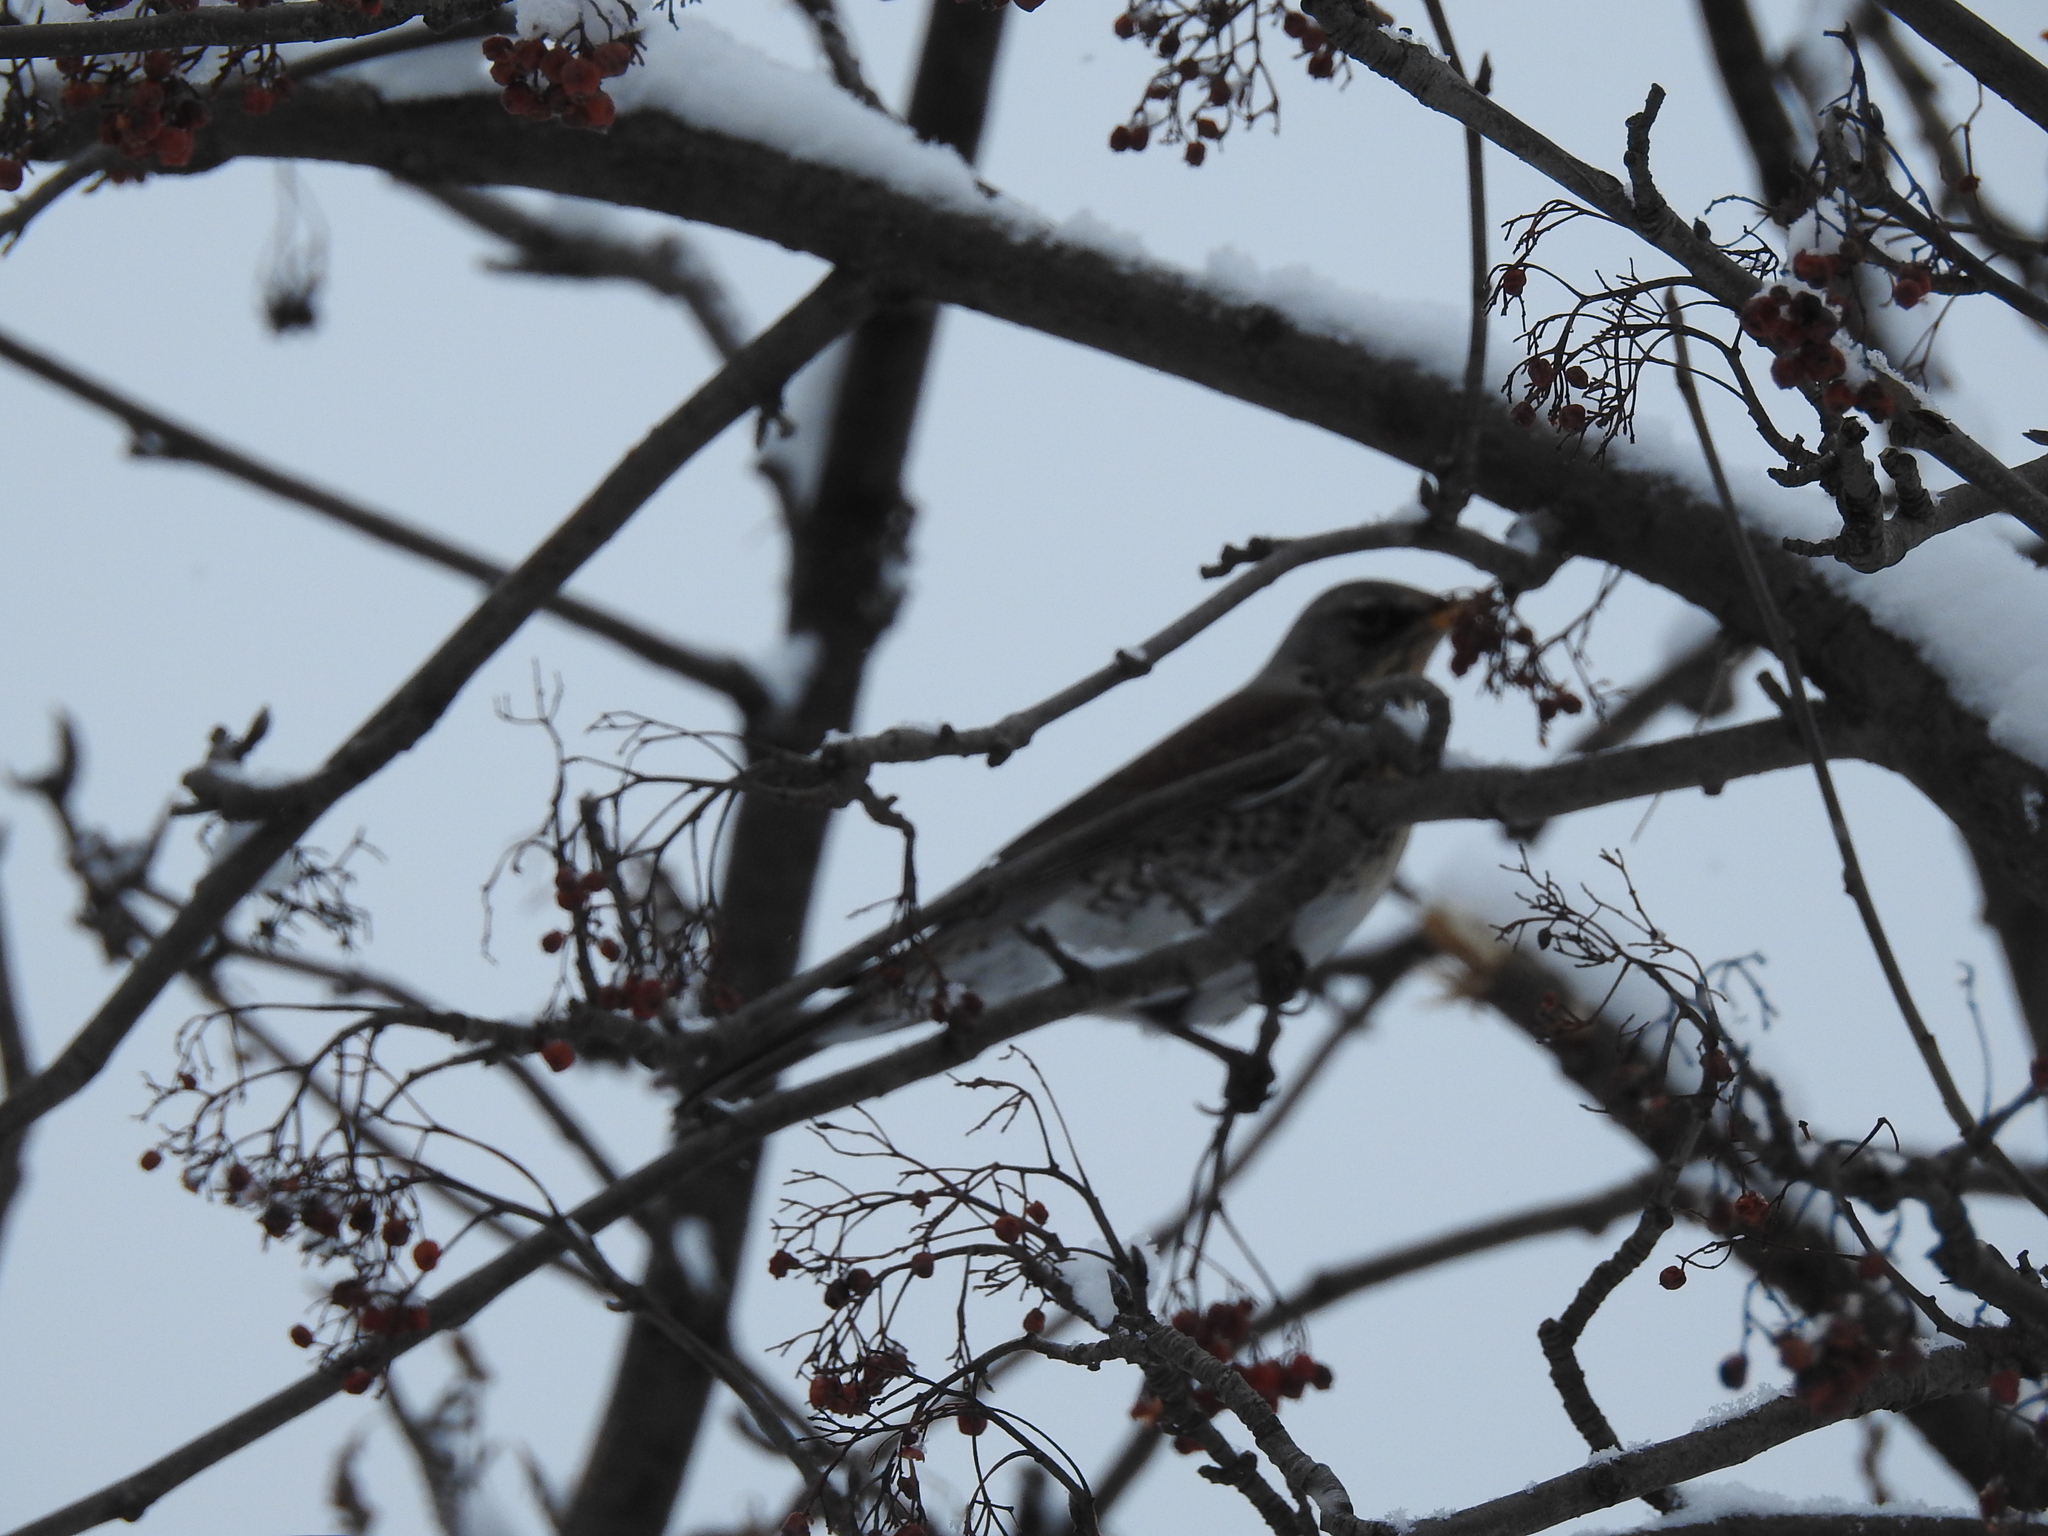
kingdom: Animalia
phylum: Chordata
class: Aves
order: Passeriformes
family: Turdidae
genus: Turdus
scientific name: Turdus pilaris
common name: Fieldfare
